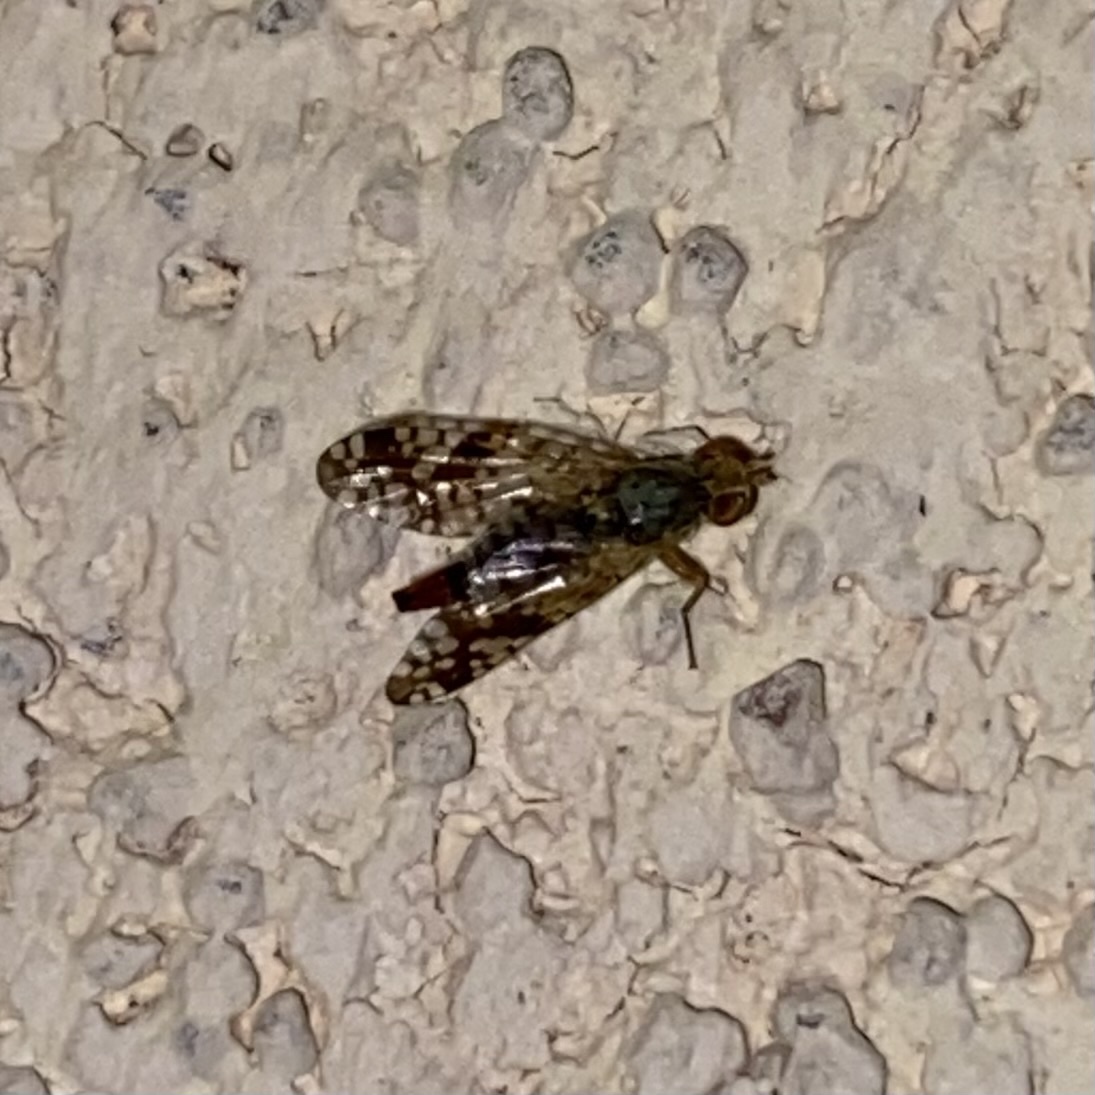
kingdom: Animalia
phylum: Arthropoda
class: Insecta
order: Diptera
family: Tephritidae
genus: Neotephritis
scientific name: Neotephritis finalis
